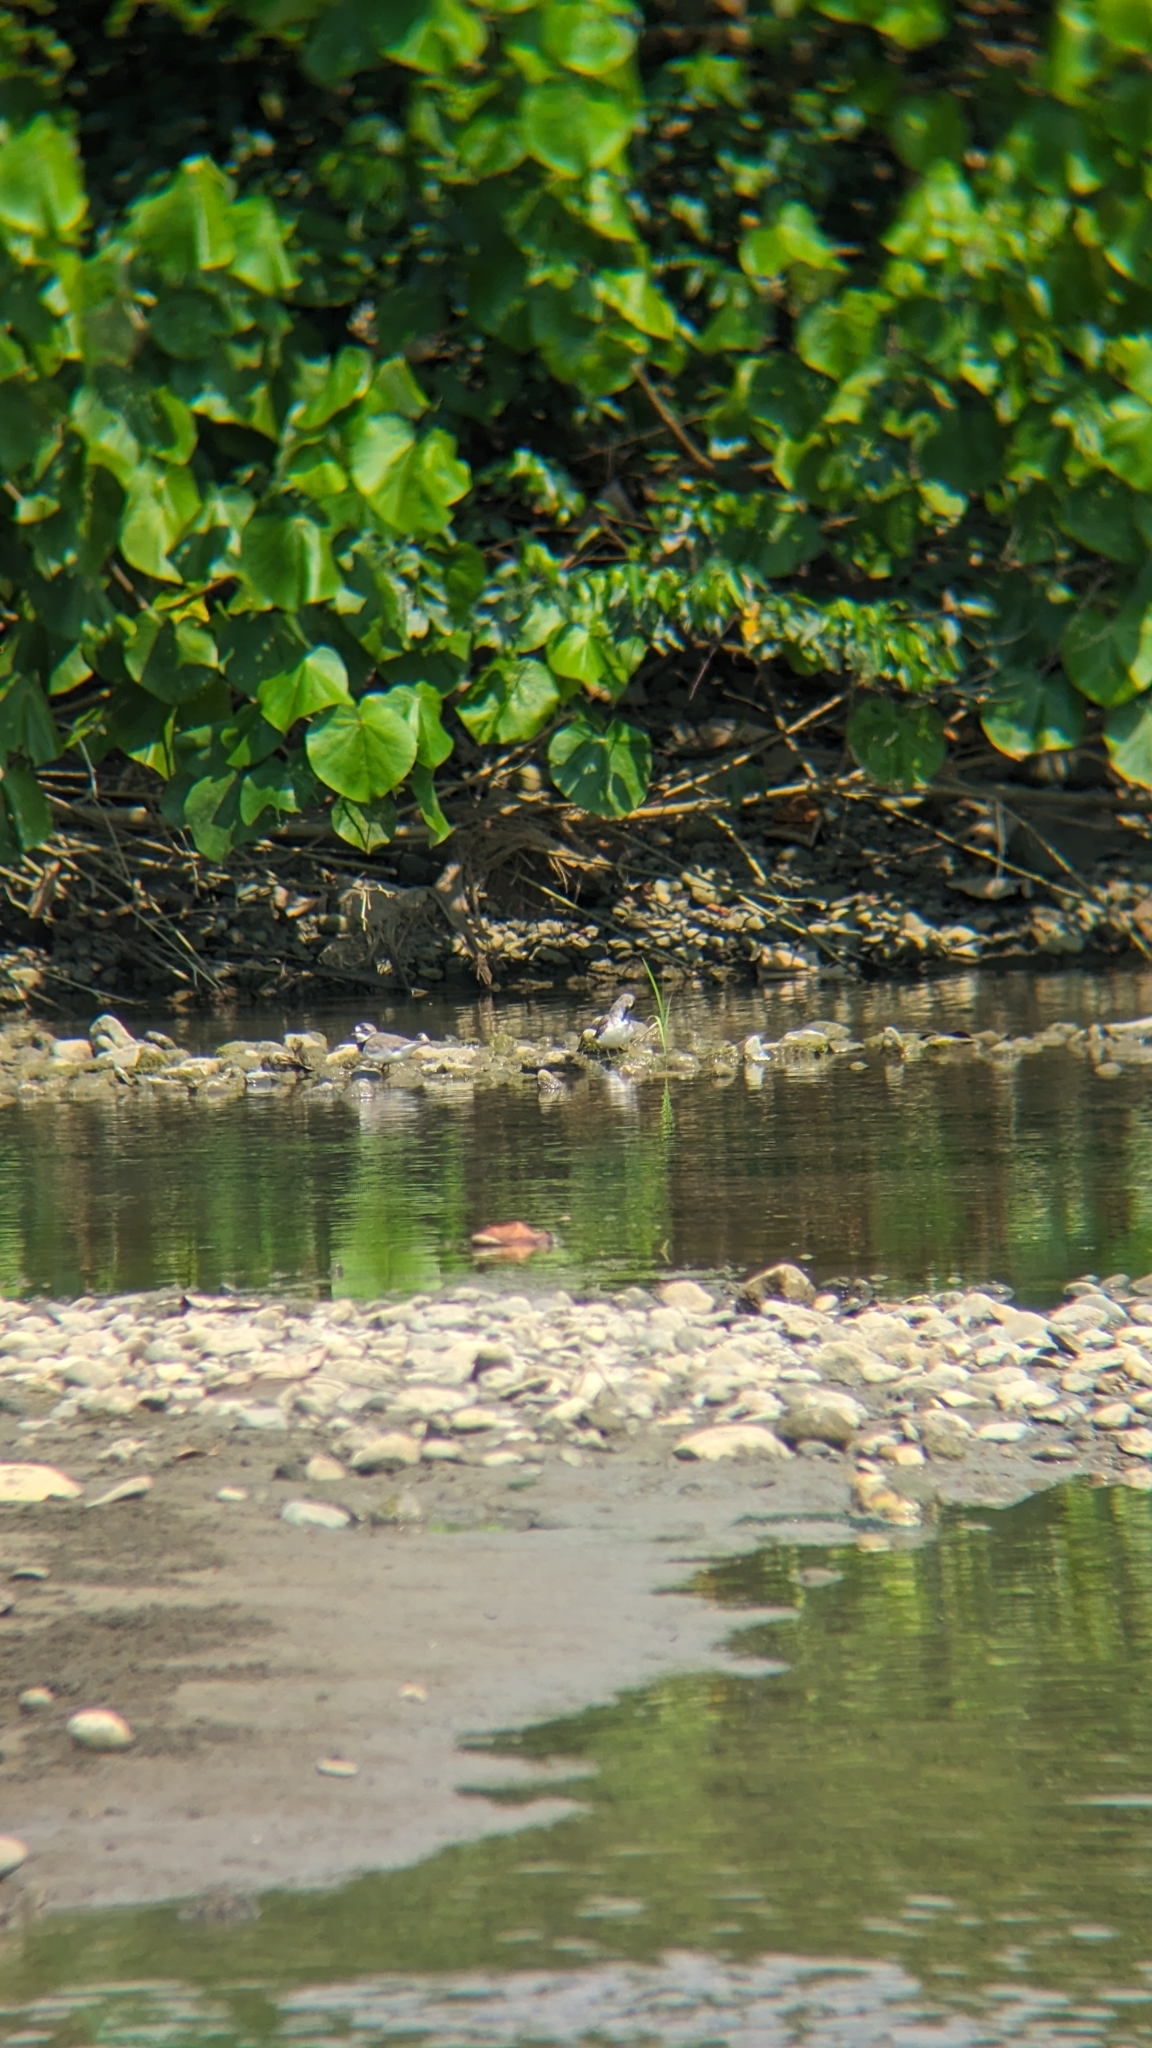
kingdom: Animalia
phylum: Chordata
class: Aves
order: Charadriiformes
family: Charadriidae
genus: Charadrius
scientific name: Charadrius semipalmatus
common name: Semipalmated plover
